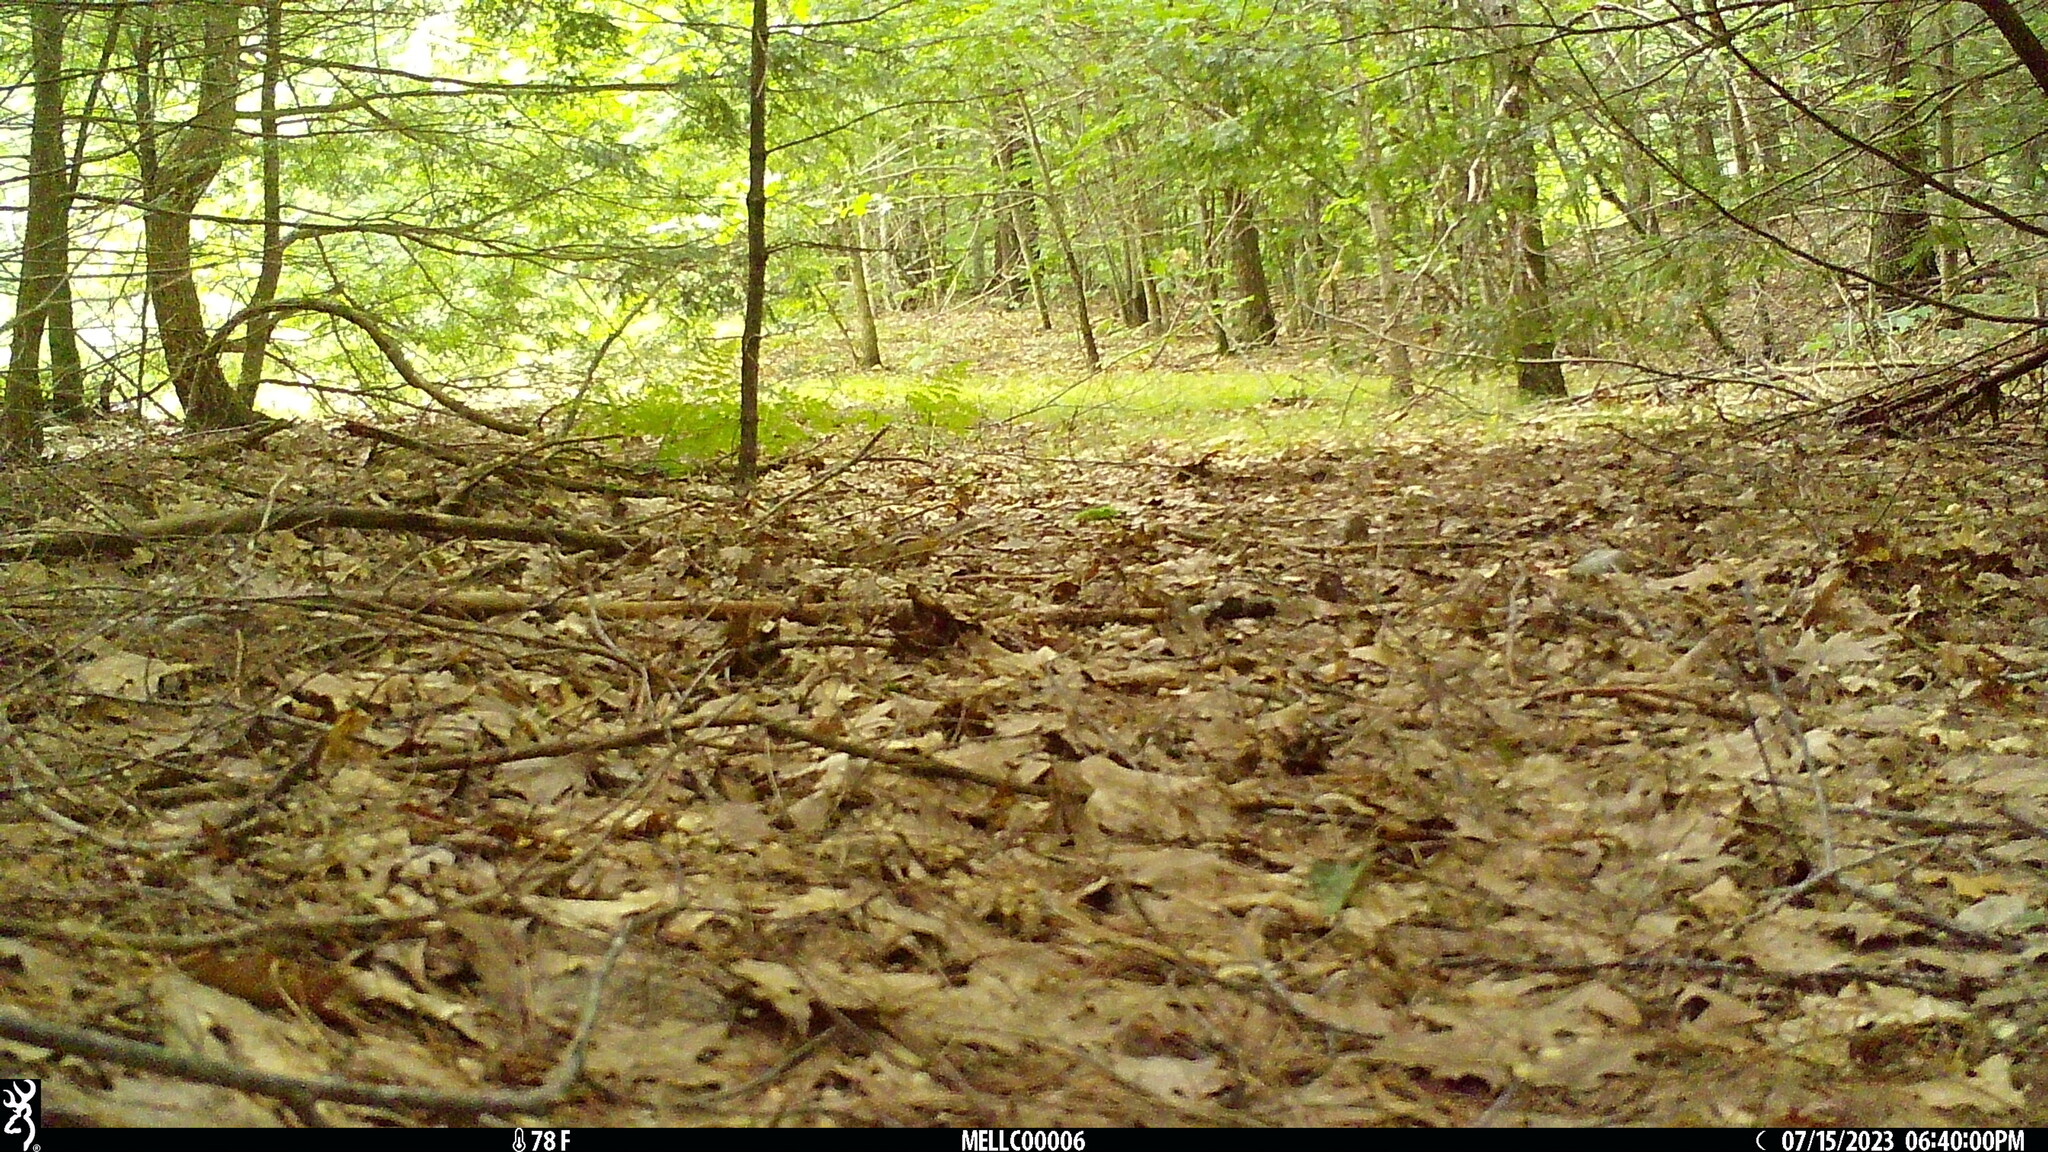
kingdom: Animalia
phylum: Chordata
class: Mammalia
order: Rodentia
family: Sciuridae
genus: Tamias
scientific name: Tamias striatus
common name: Eastern chipmunk
